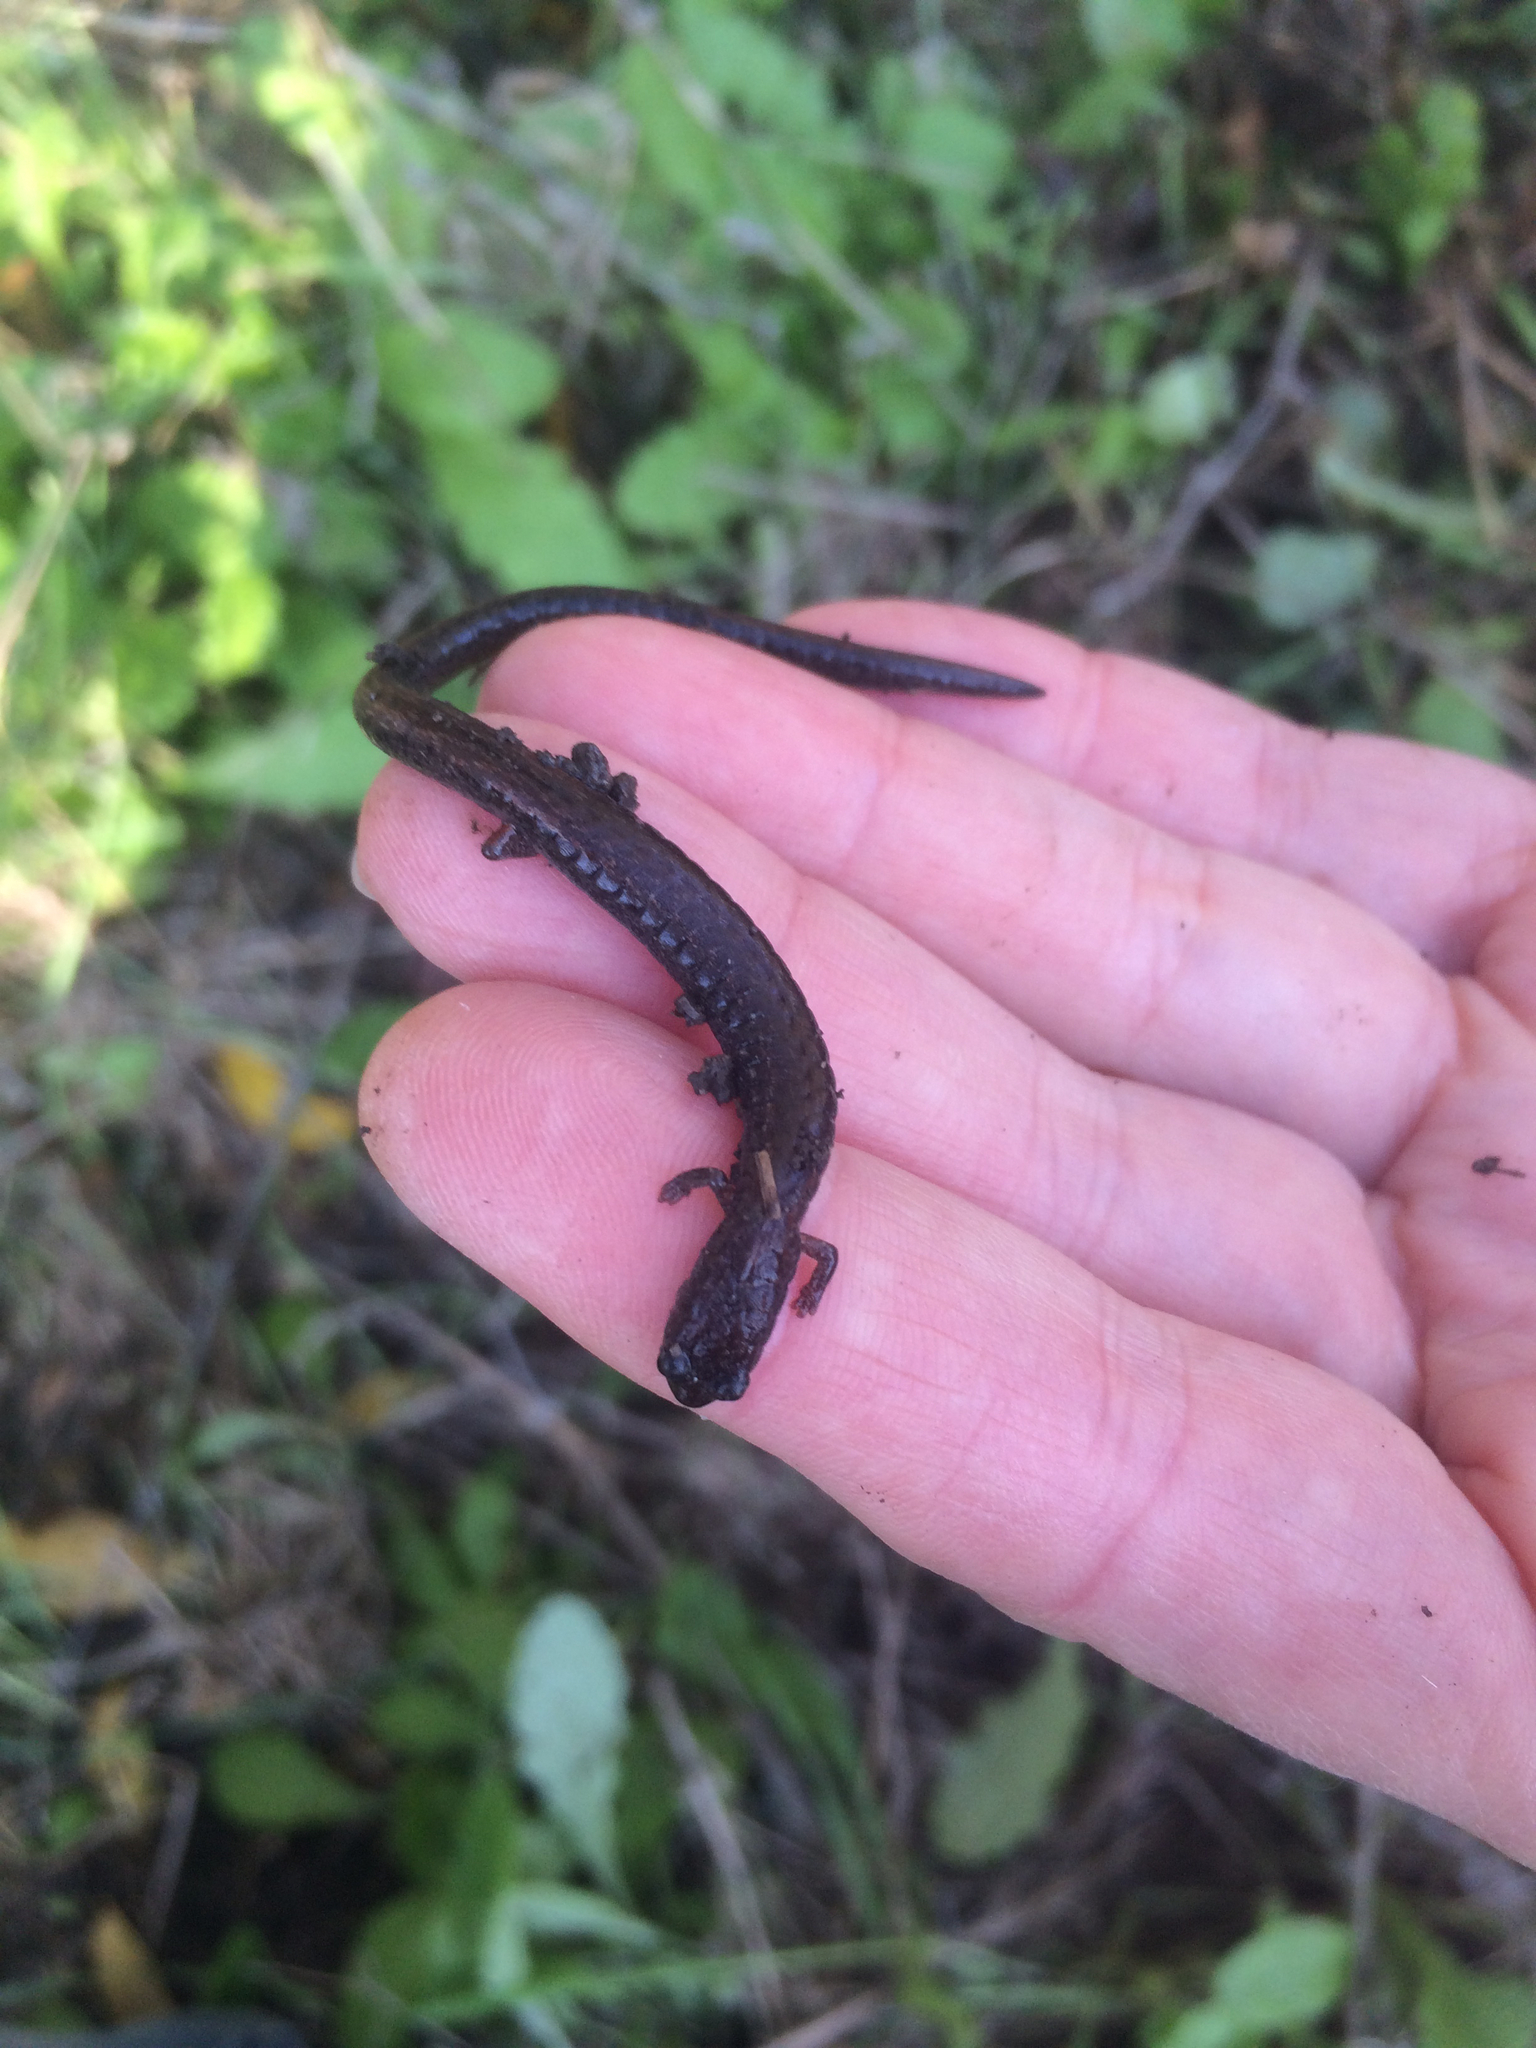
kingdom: Animalia
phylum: Chordata
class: Amphibia
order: Caudata
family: Plethodontidae
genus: Batrachoseps
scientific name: Batrachoseps attenuatus
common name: California slender salamander
